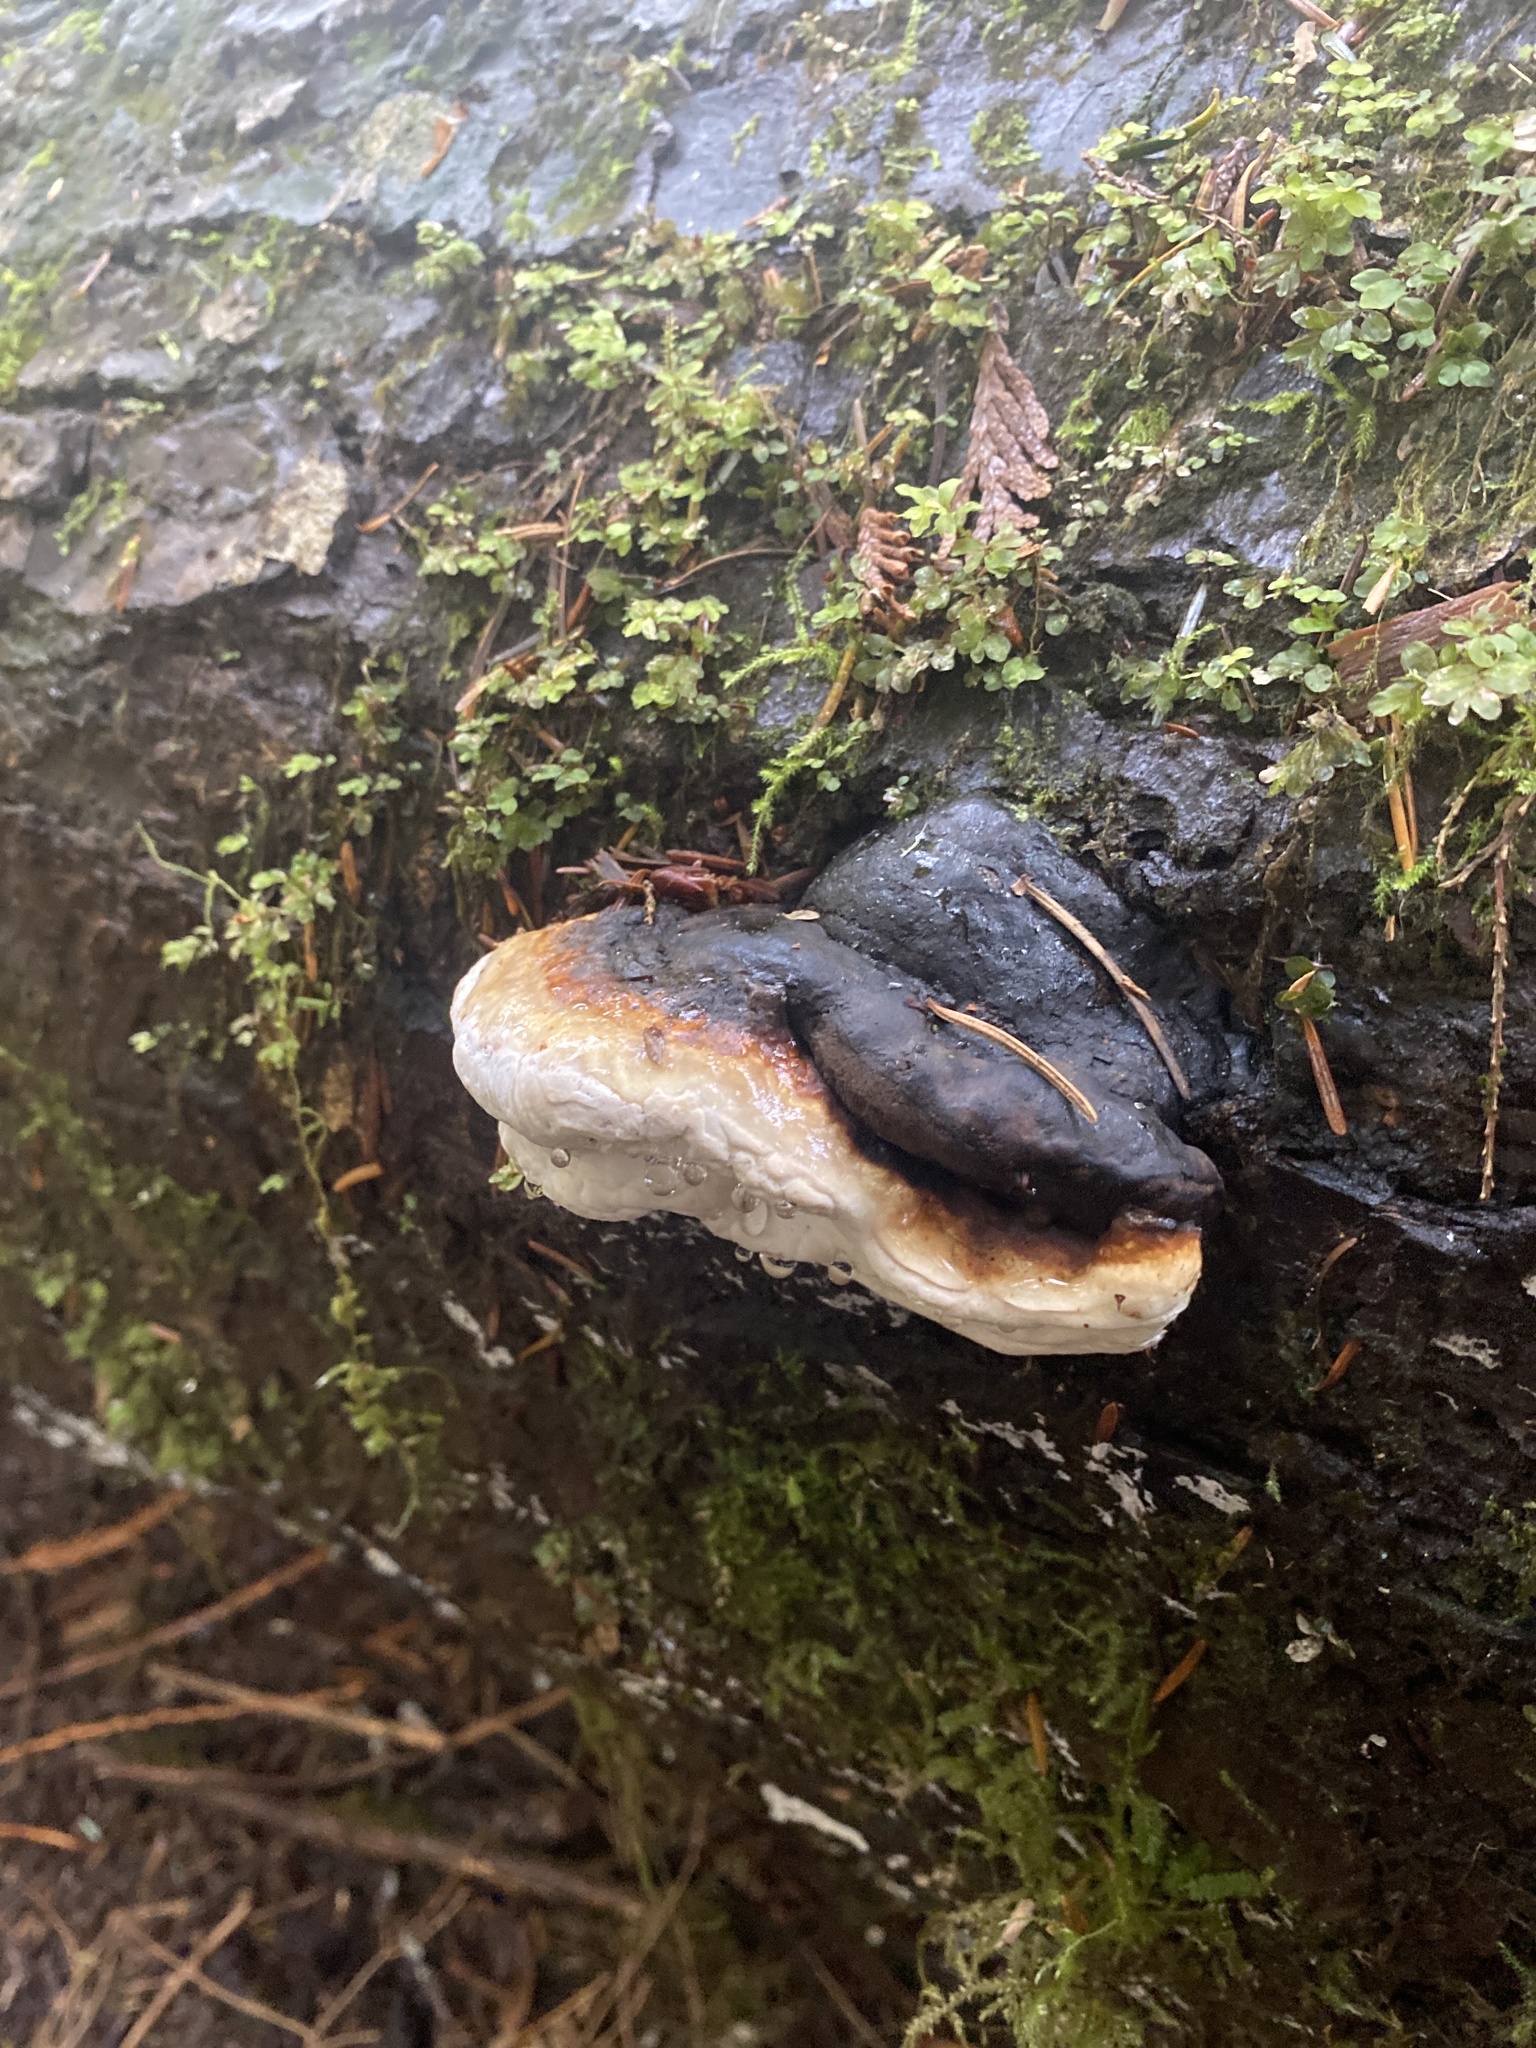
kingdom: Fungi
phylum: Basidiomycota
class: Agaricomycetes
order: Polyporales
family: Fomitopsidaceae
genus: Fomitopsis
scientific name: Fomitopsis mounceae
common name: Northern red belt
